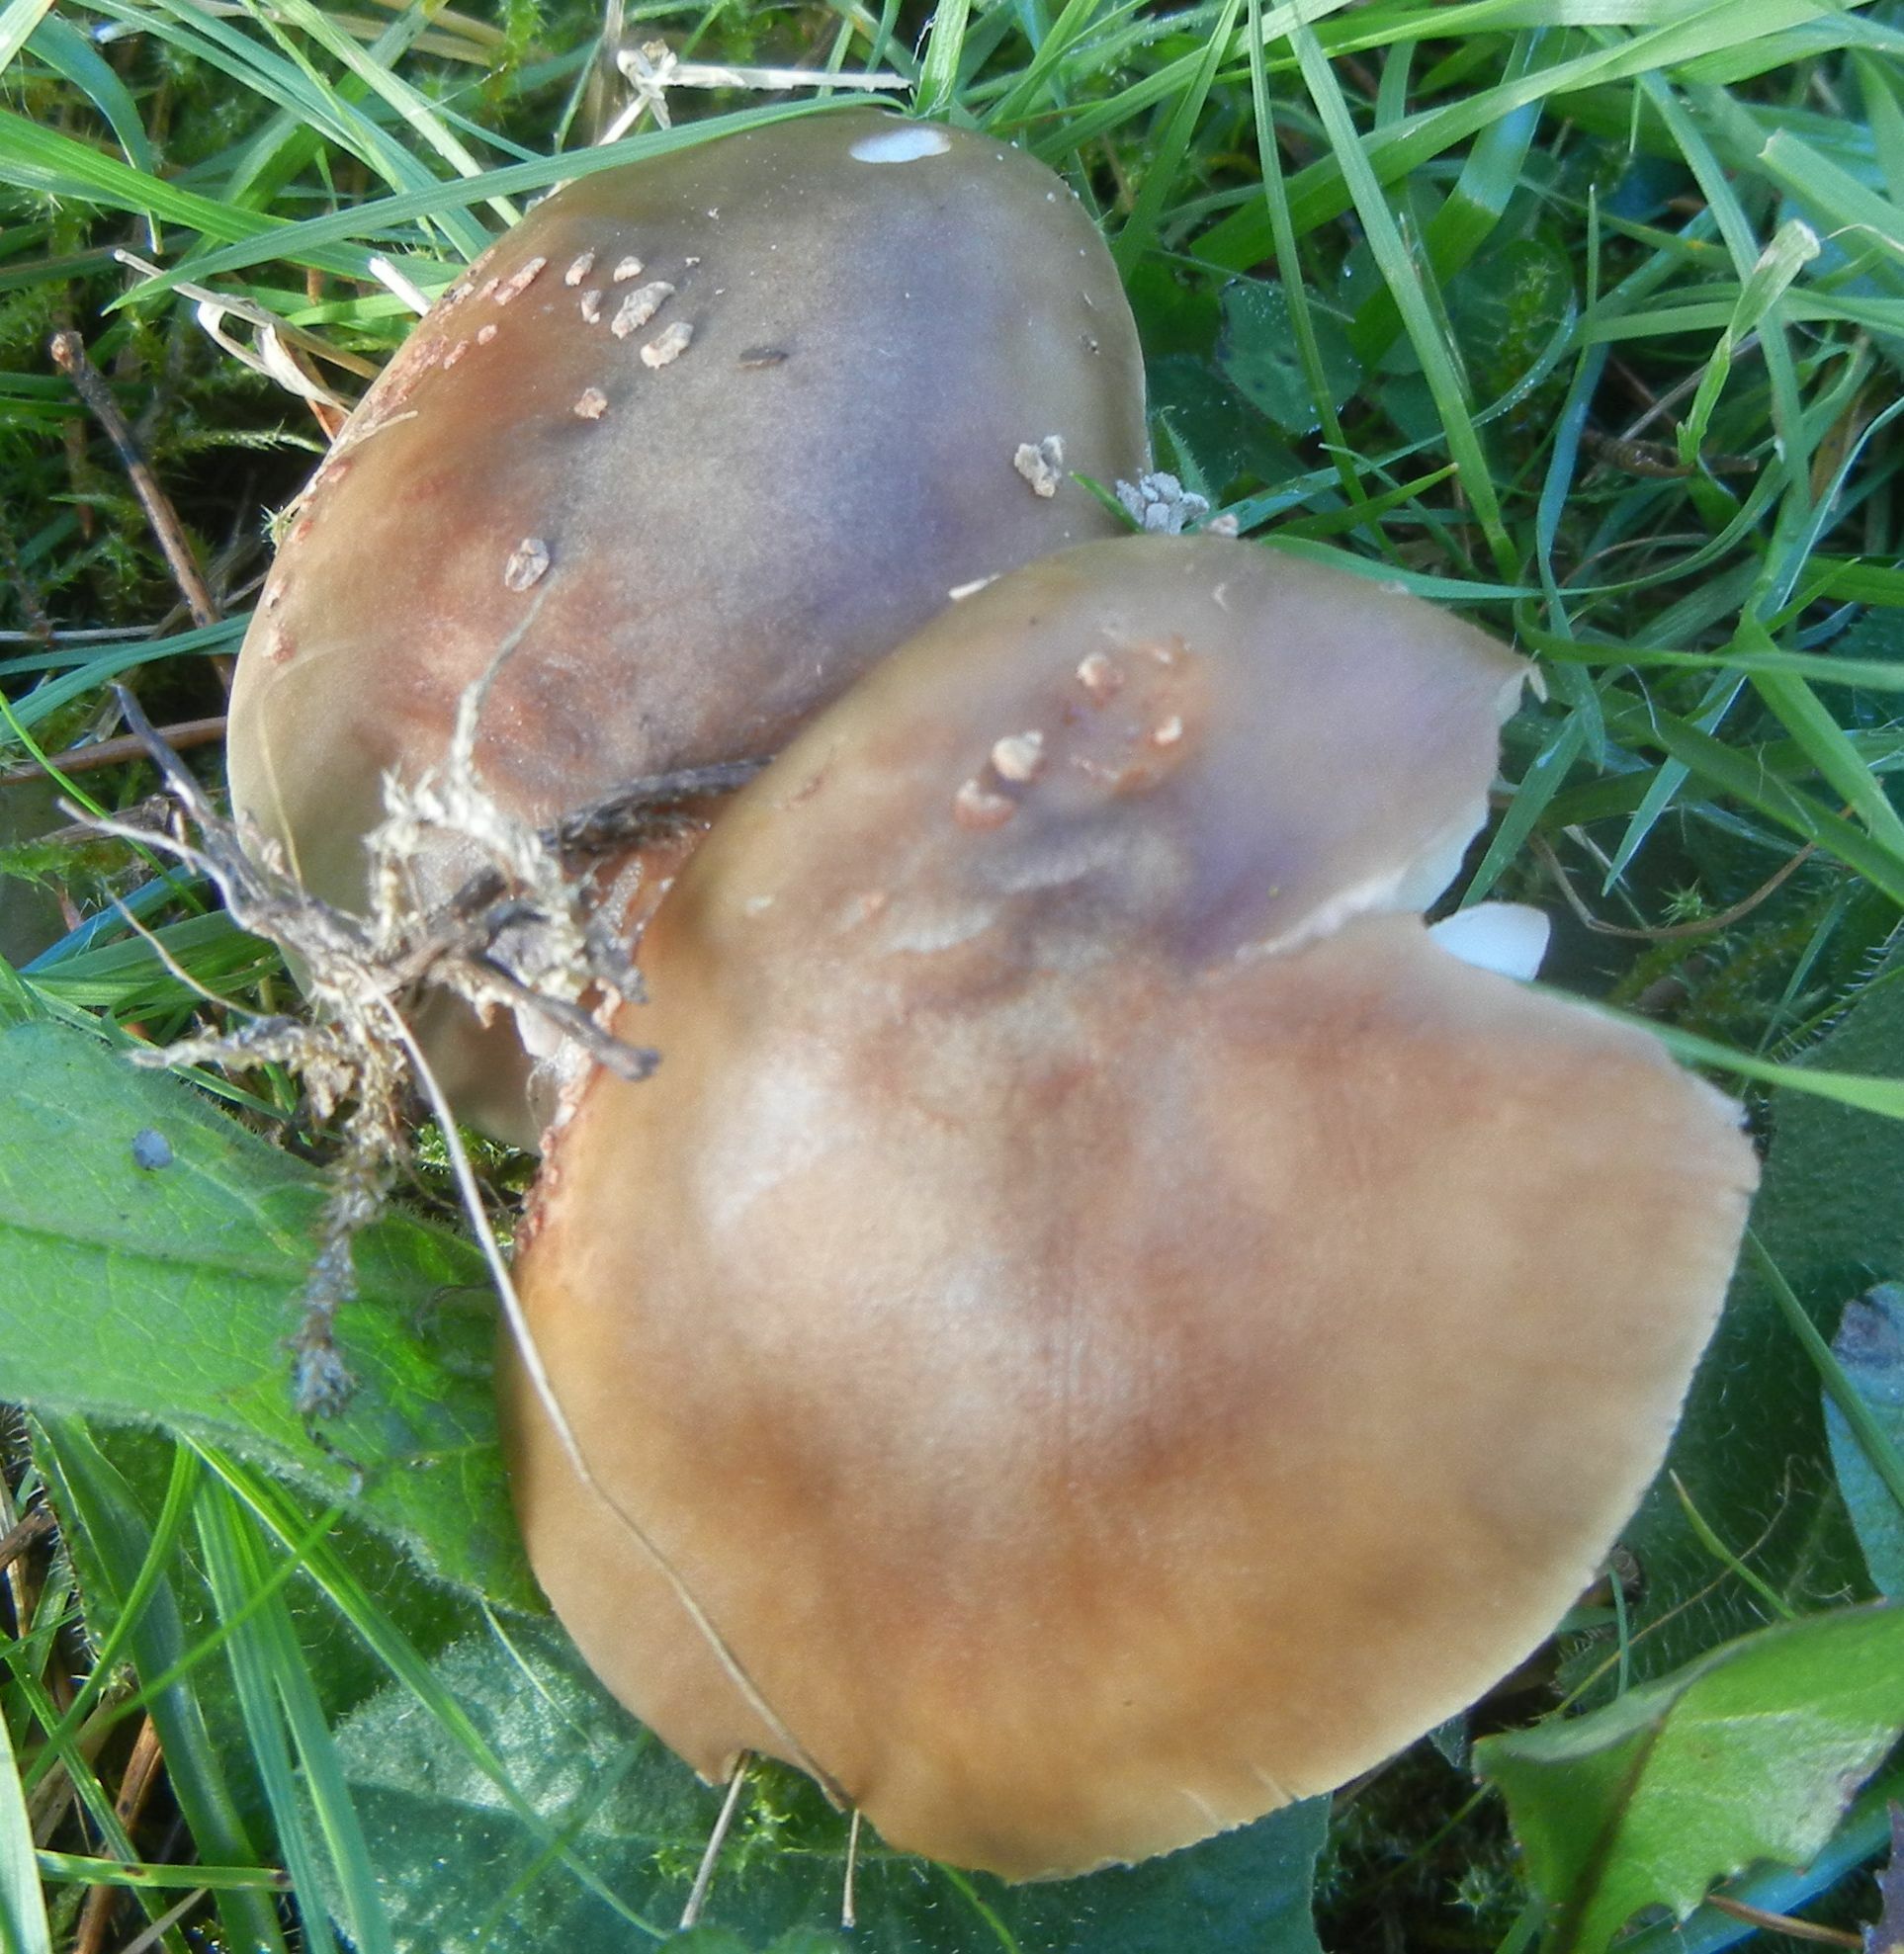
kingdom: Fungi
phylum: Basidiomycota
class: Agaricomycetes
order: Agaricales
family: Amanitaceae
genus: Amanita
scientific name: Amanita rubescens
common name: Blusher
